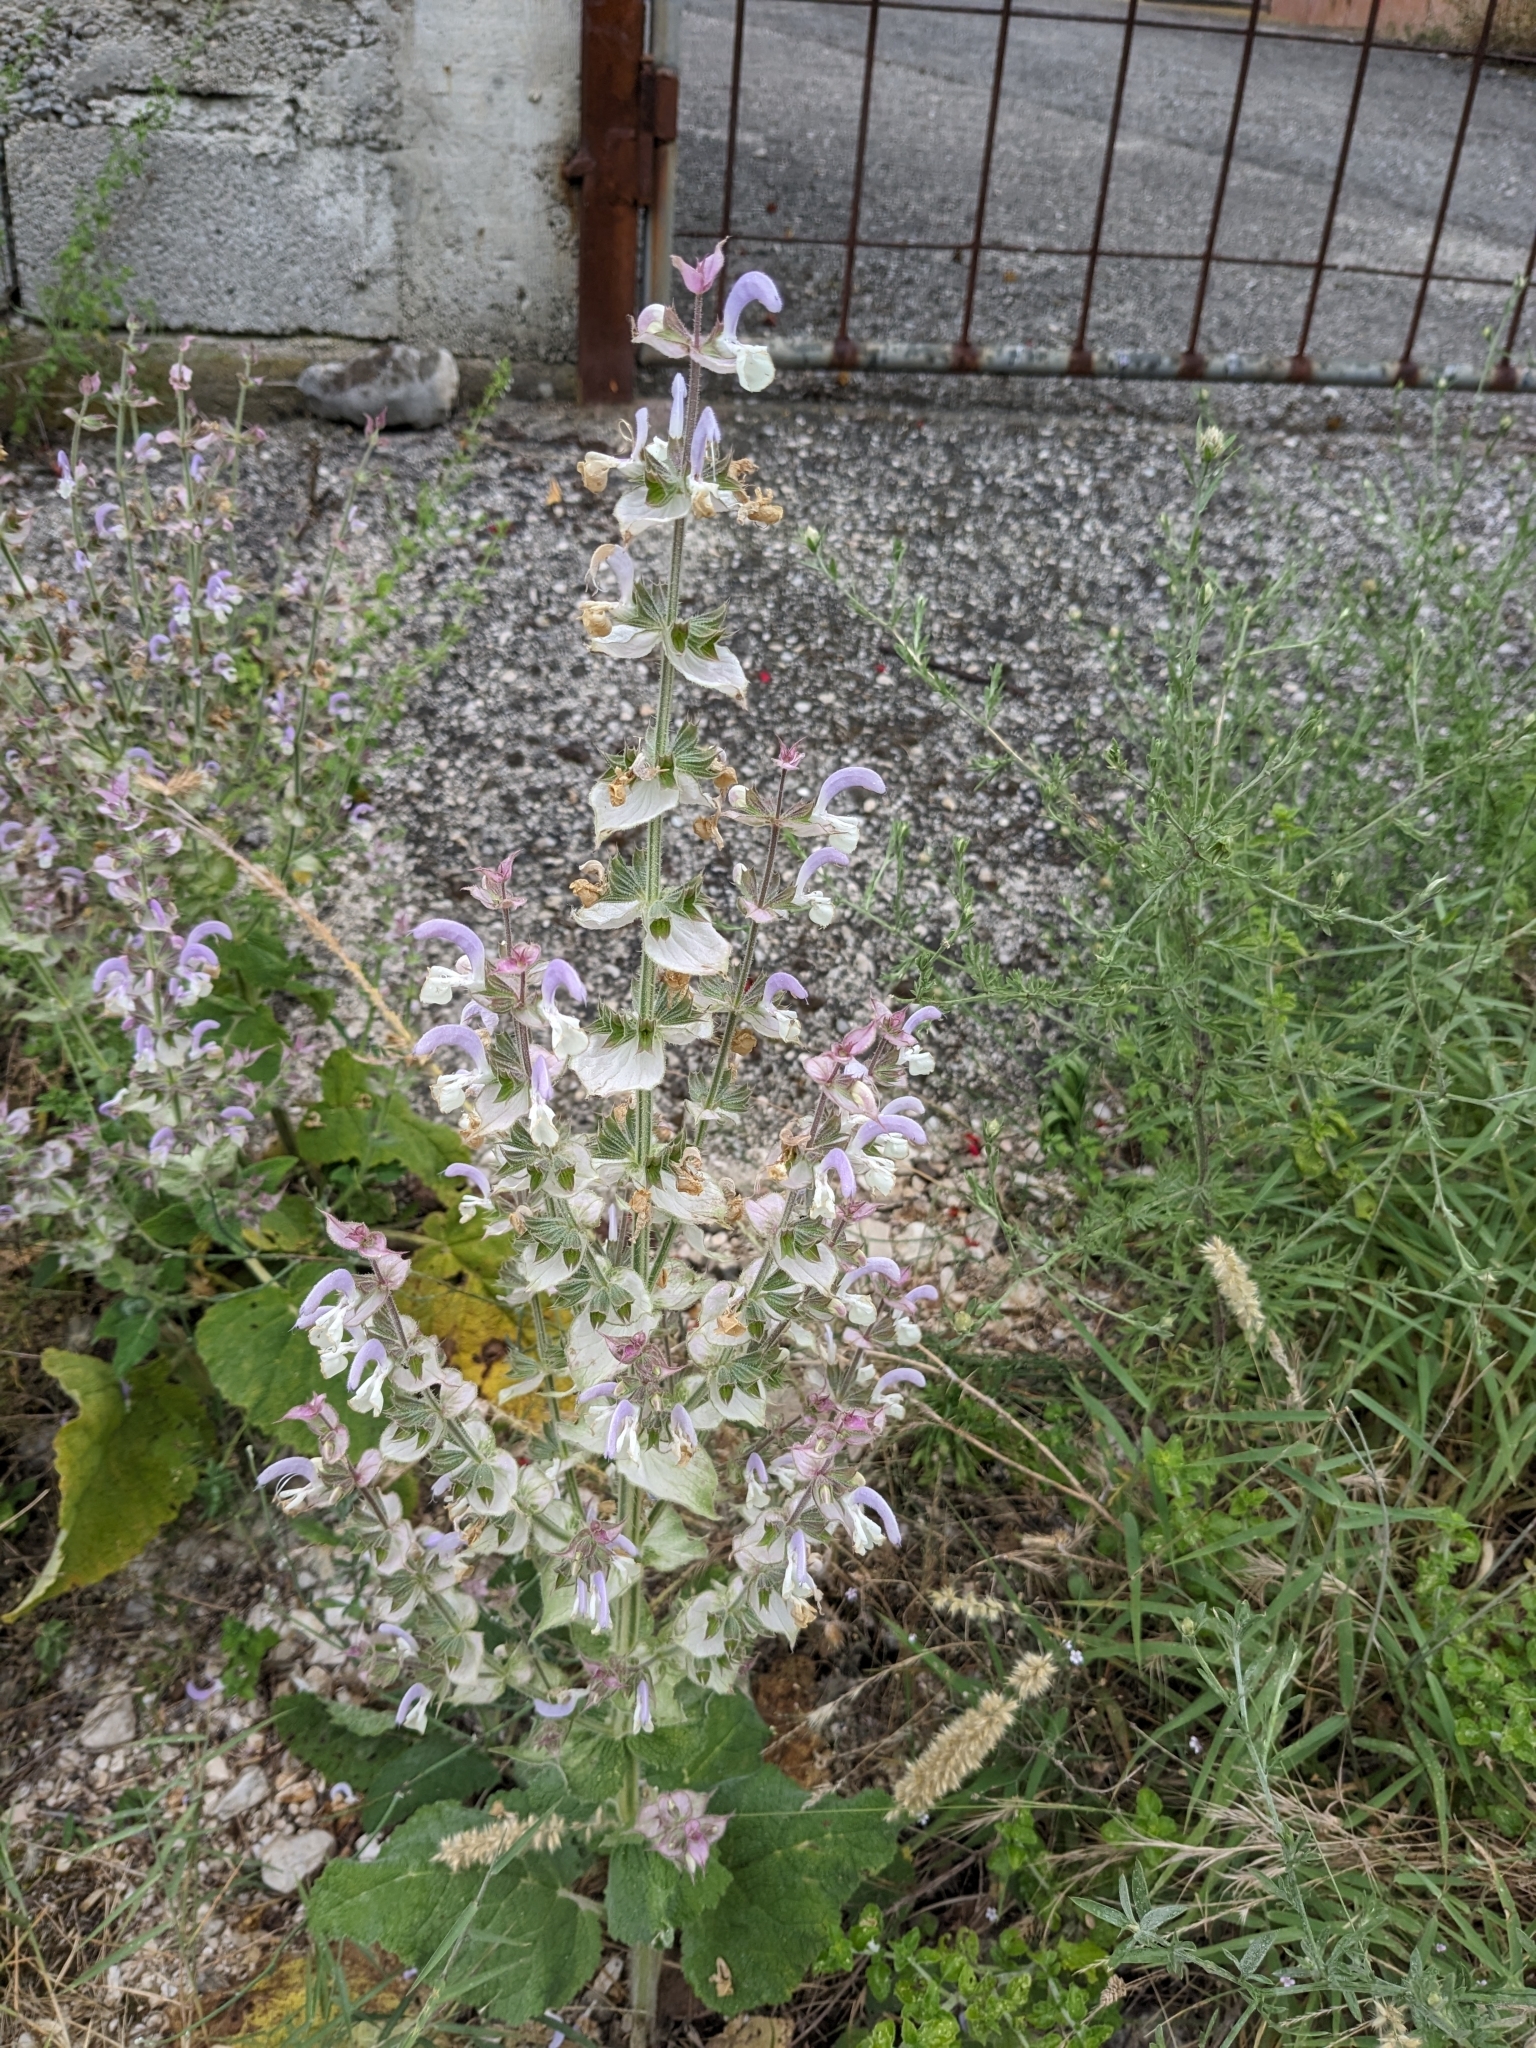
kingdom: Plantae
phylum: Tracheophyta
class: Magnoliopsida
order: Lamiales
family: Lamiaceae
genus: Salvia
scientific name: Salvia sclarea
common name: Clary
